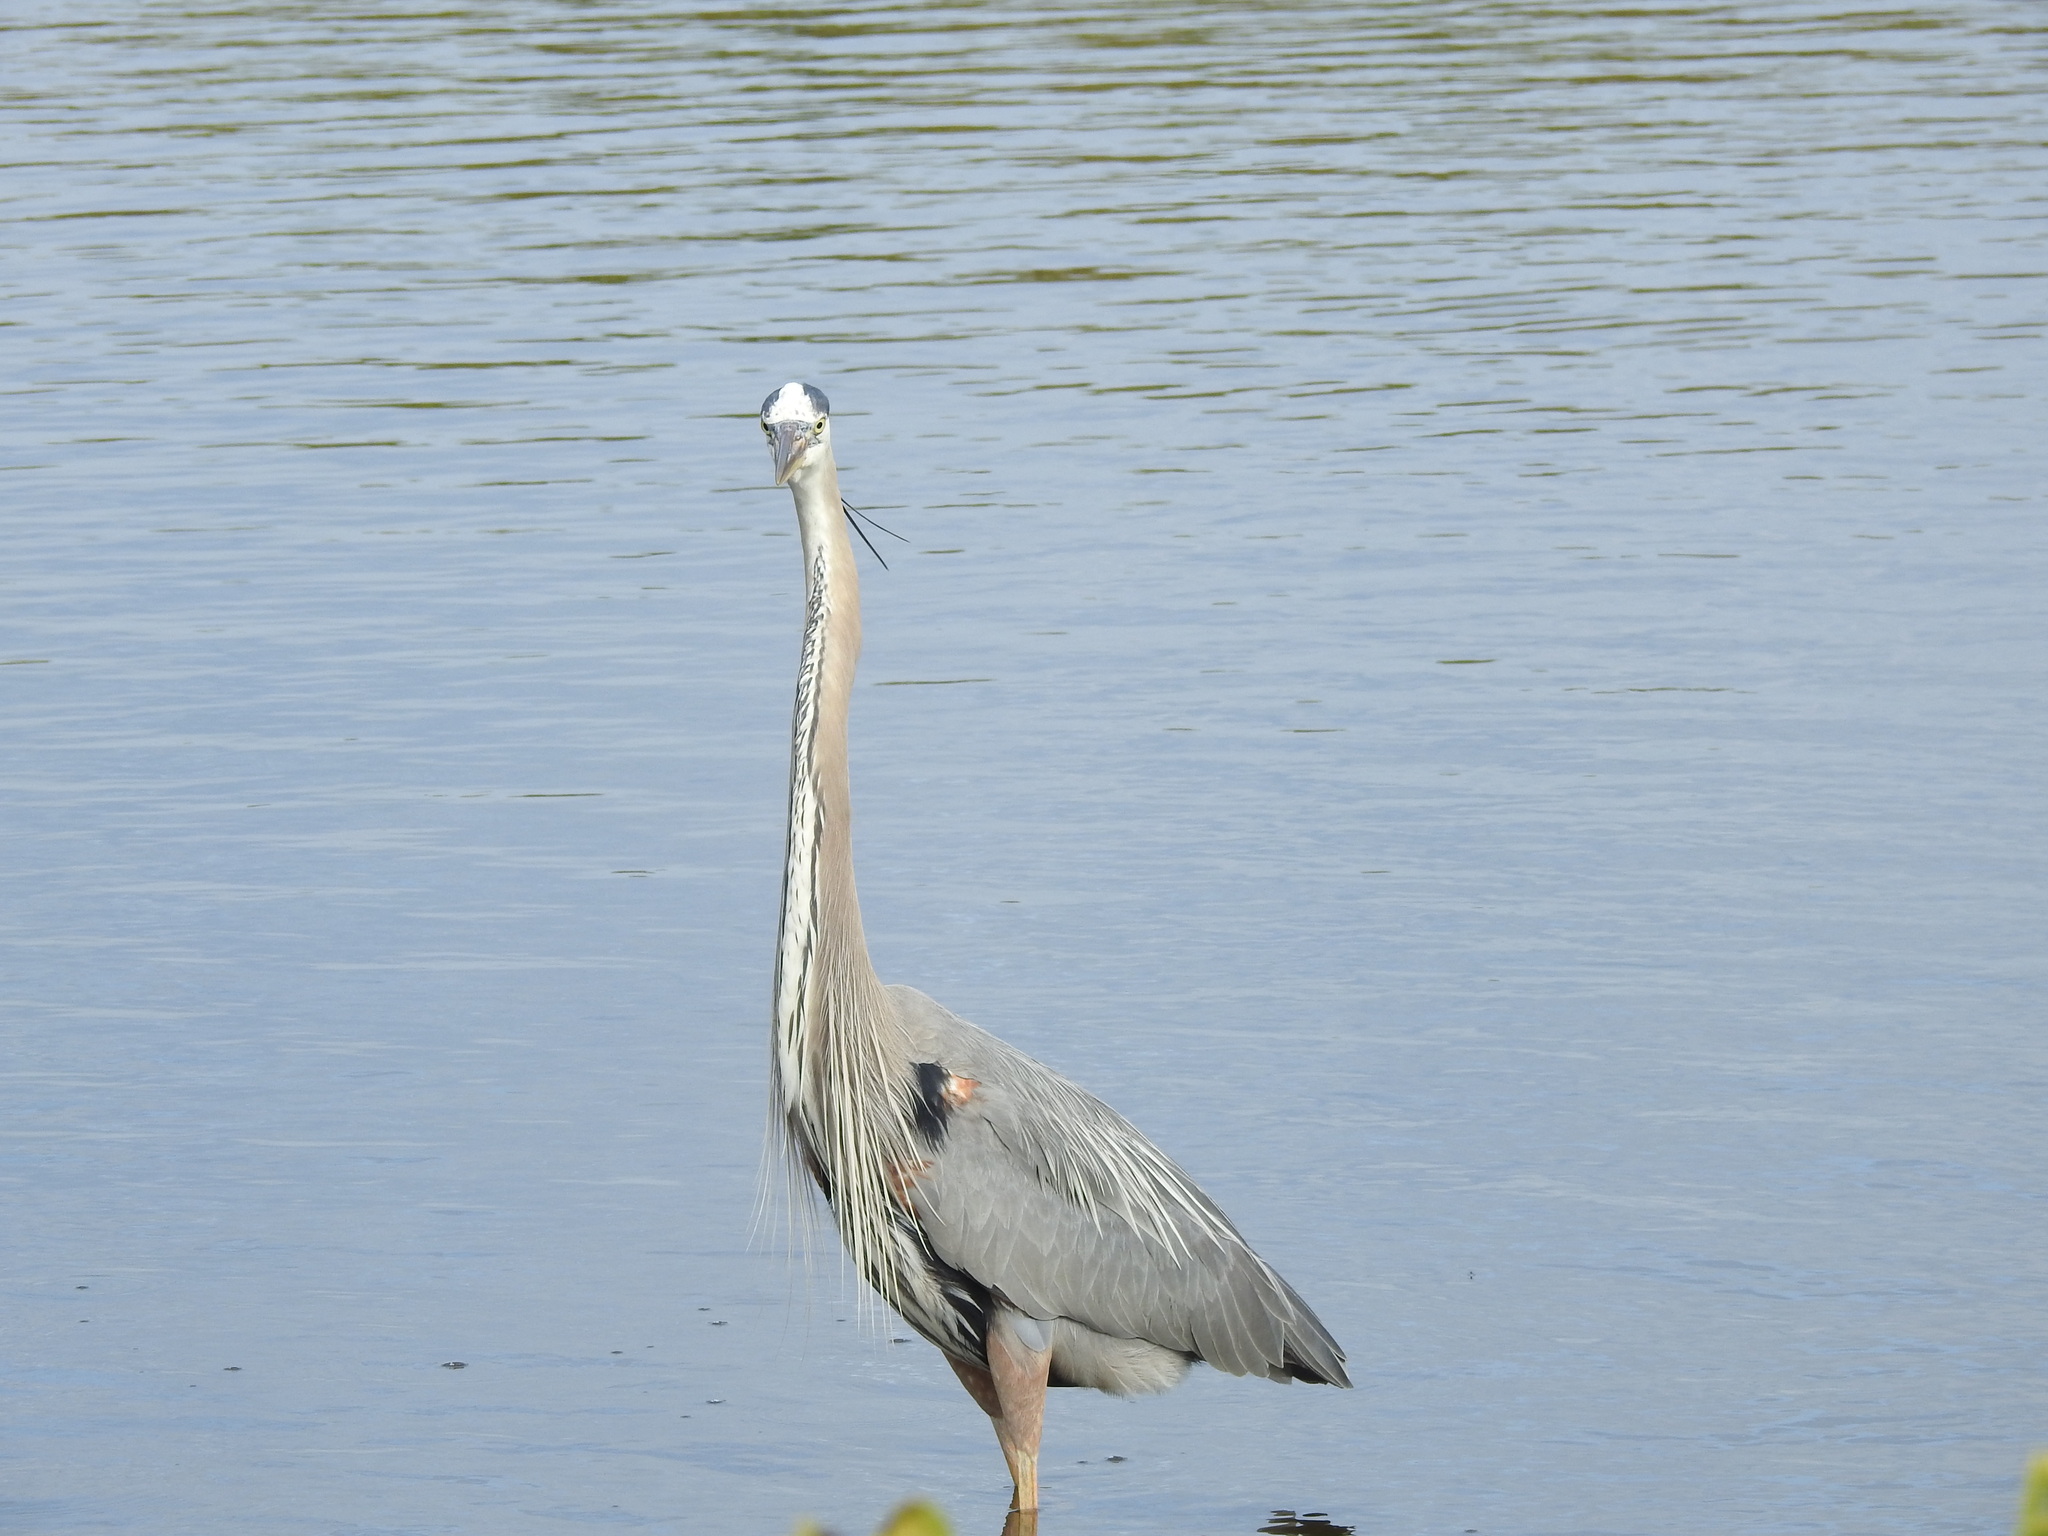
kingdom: Animalia
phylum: Chordata
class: Aves
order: Pelecaniformes
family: Ardeidae
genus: Ardea
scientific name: Ardea herodias
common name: Great blue heron
